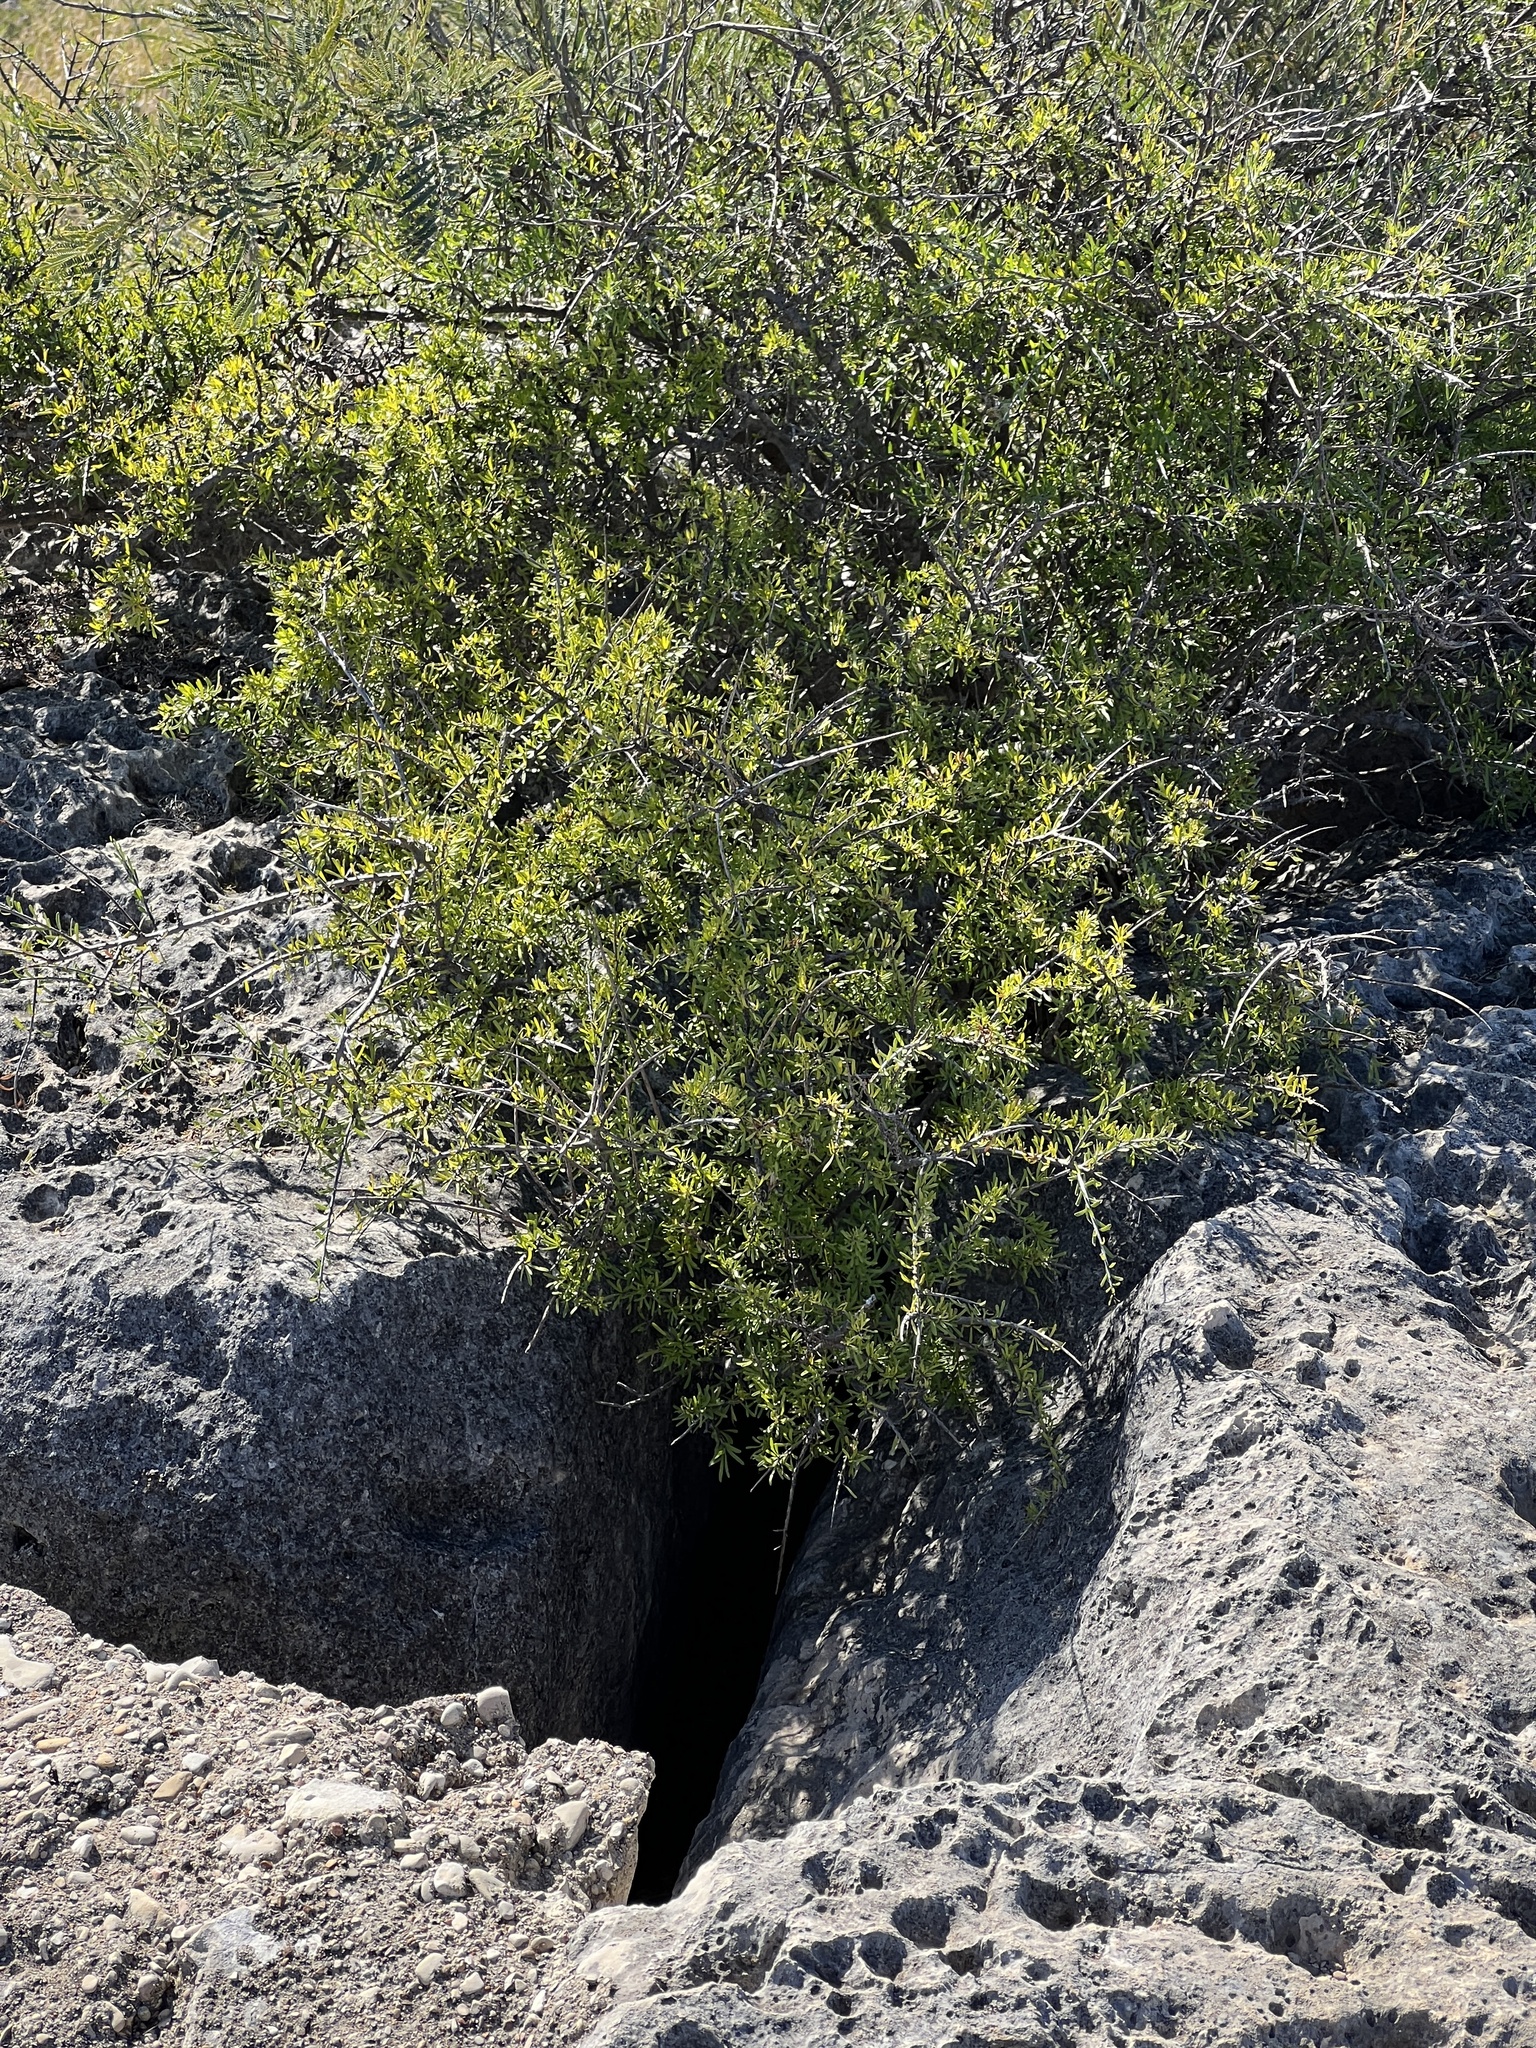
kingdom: Plantae
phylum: Tracheophyta
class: Magnoliopsida
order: Lamiales
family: Oleaceae
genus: Forestiera
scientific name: Forestiera angustifolia
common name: Elbowbush
